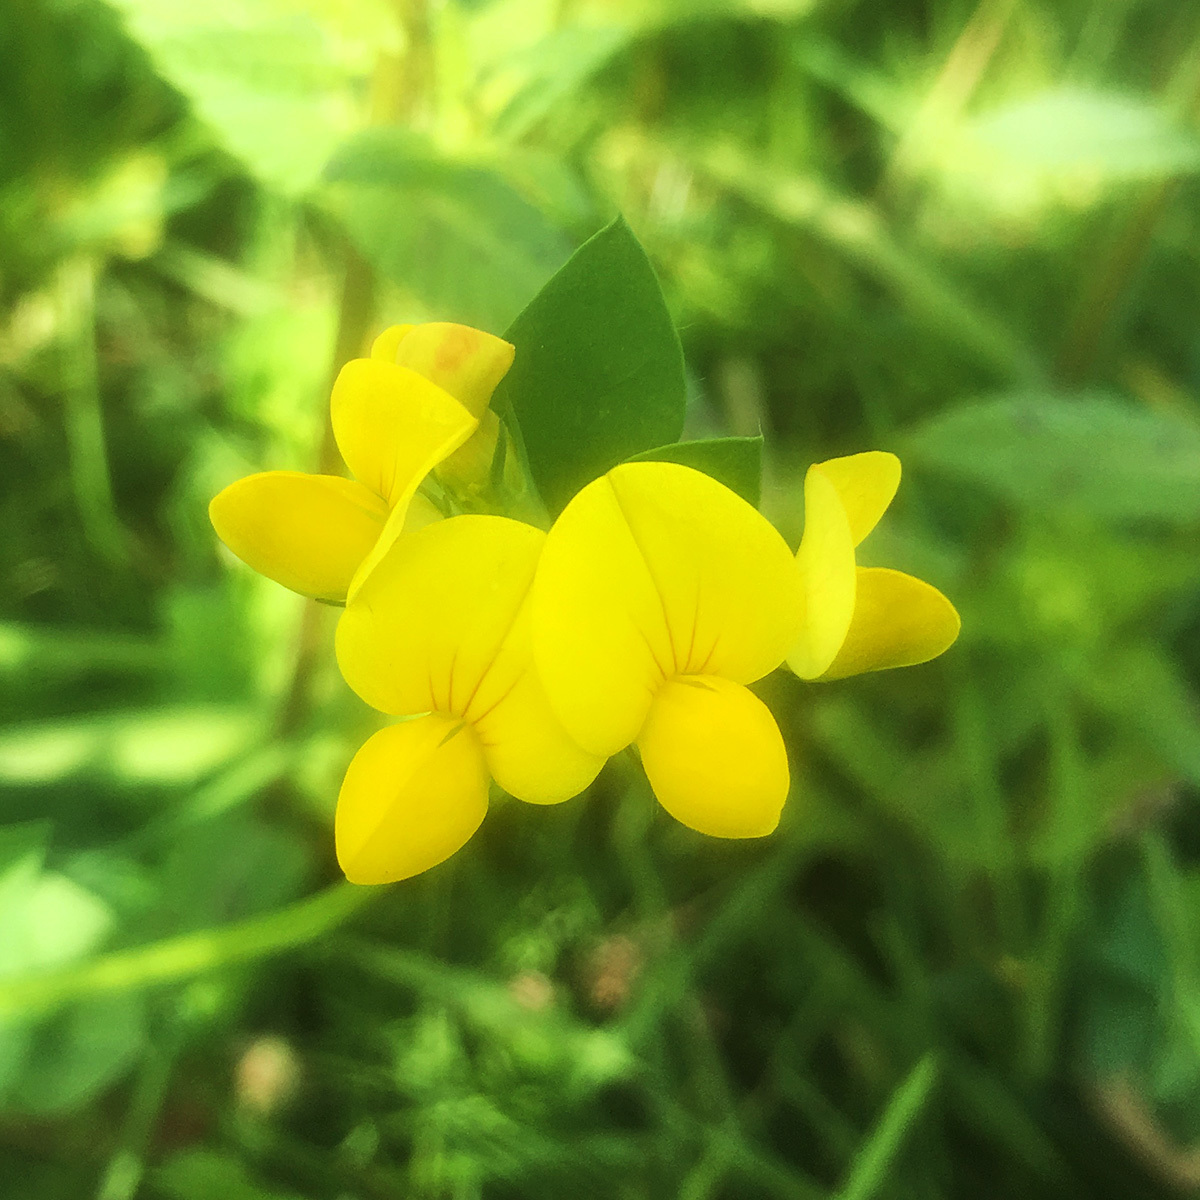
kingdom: Plantae
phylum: Tracheophyta
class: Magnoliopsida
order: Fabales
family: Fabaceae
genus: Lotus
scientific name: Lotus corniculatus
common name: Common bird's-foot-trefoil
